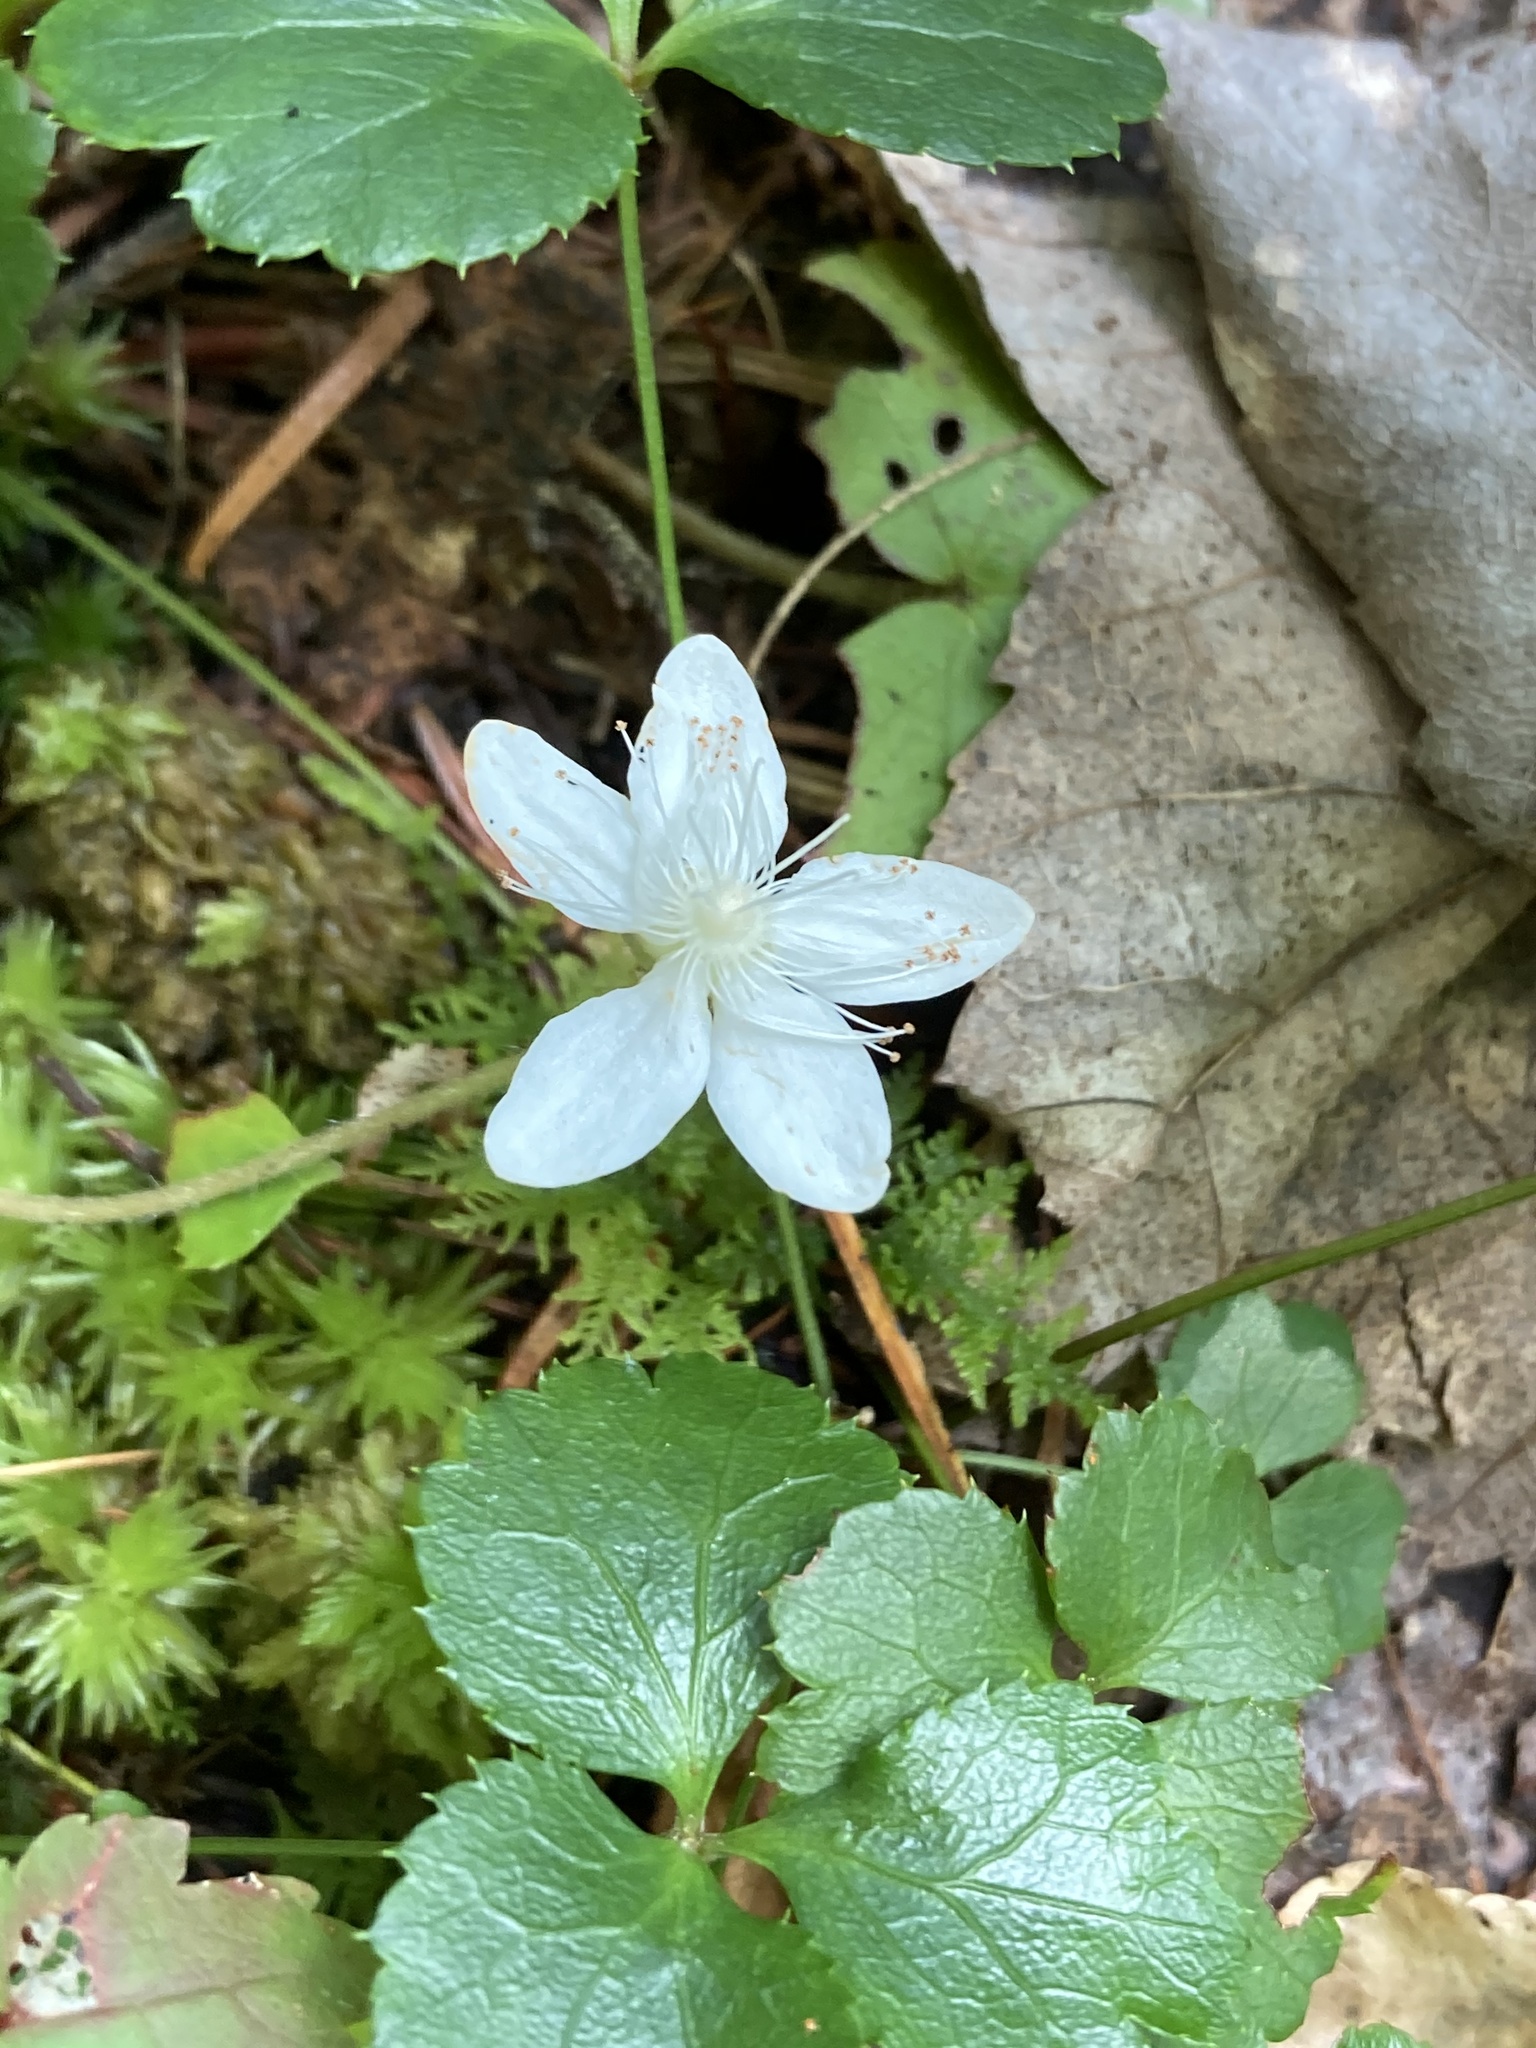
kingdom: Plantae
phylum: Tracheophyta
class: Magnoliopsida
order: Rosales
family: Rosaceae
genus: Dalibarda
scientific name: Dalibarda repens
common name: Dewdrop
